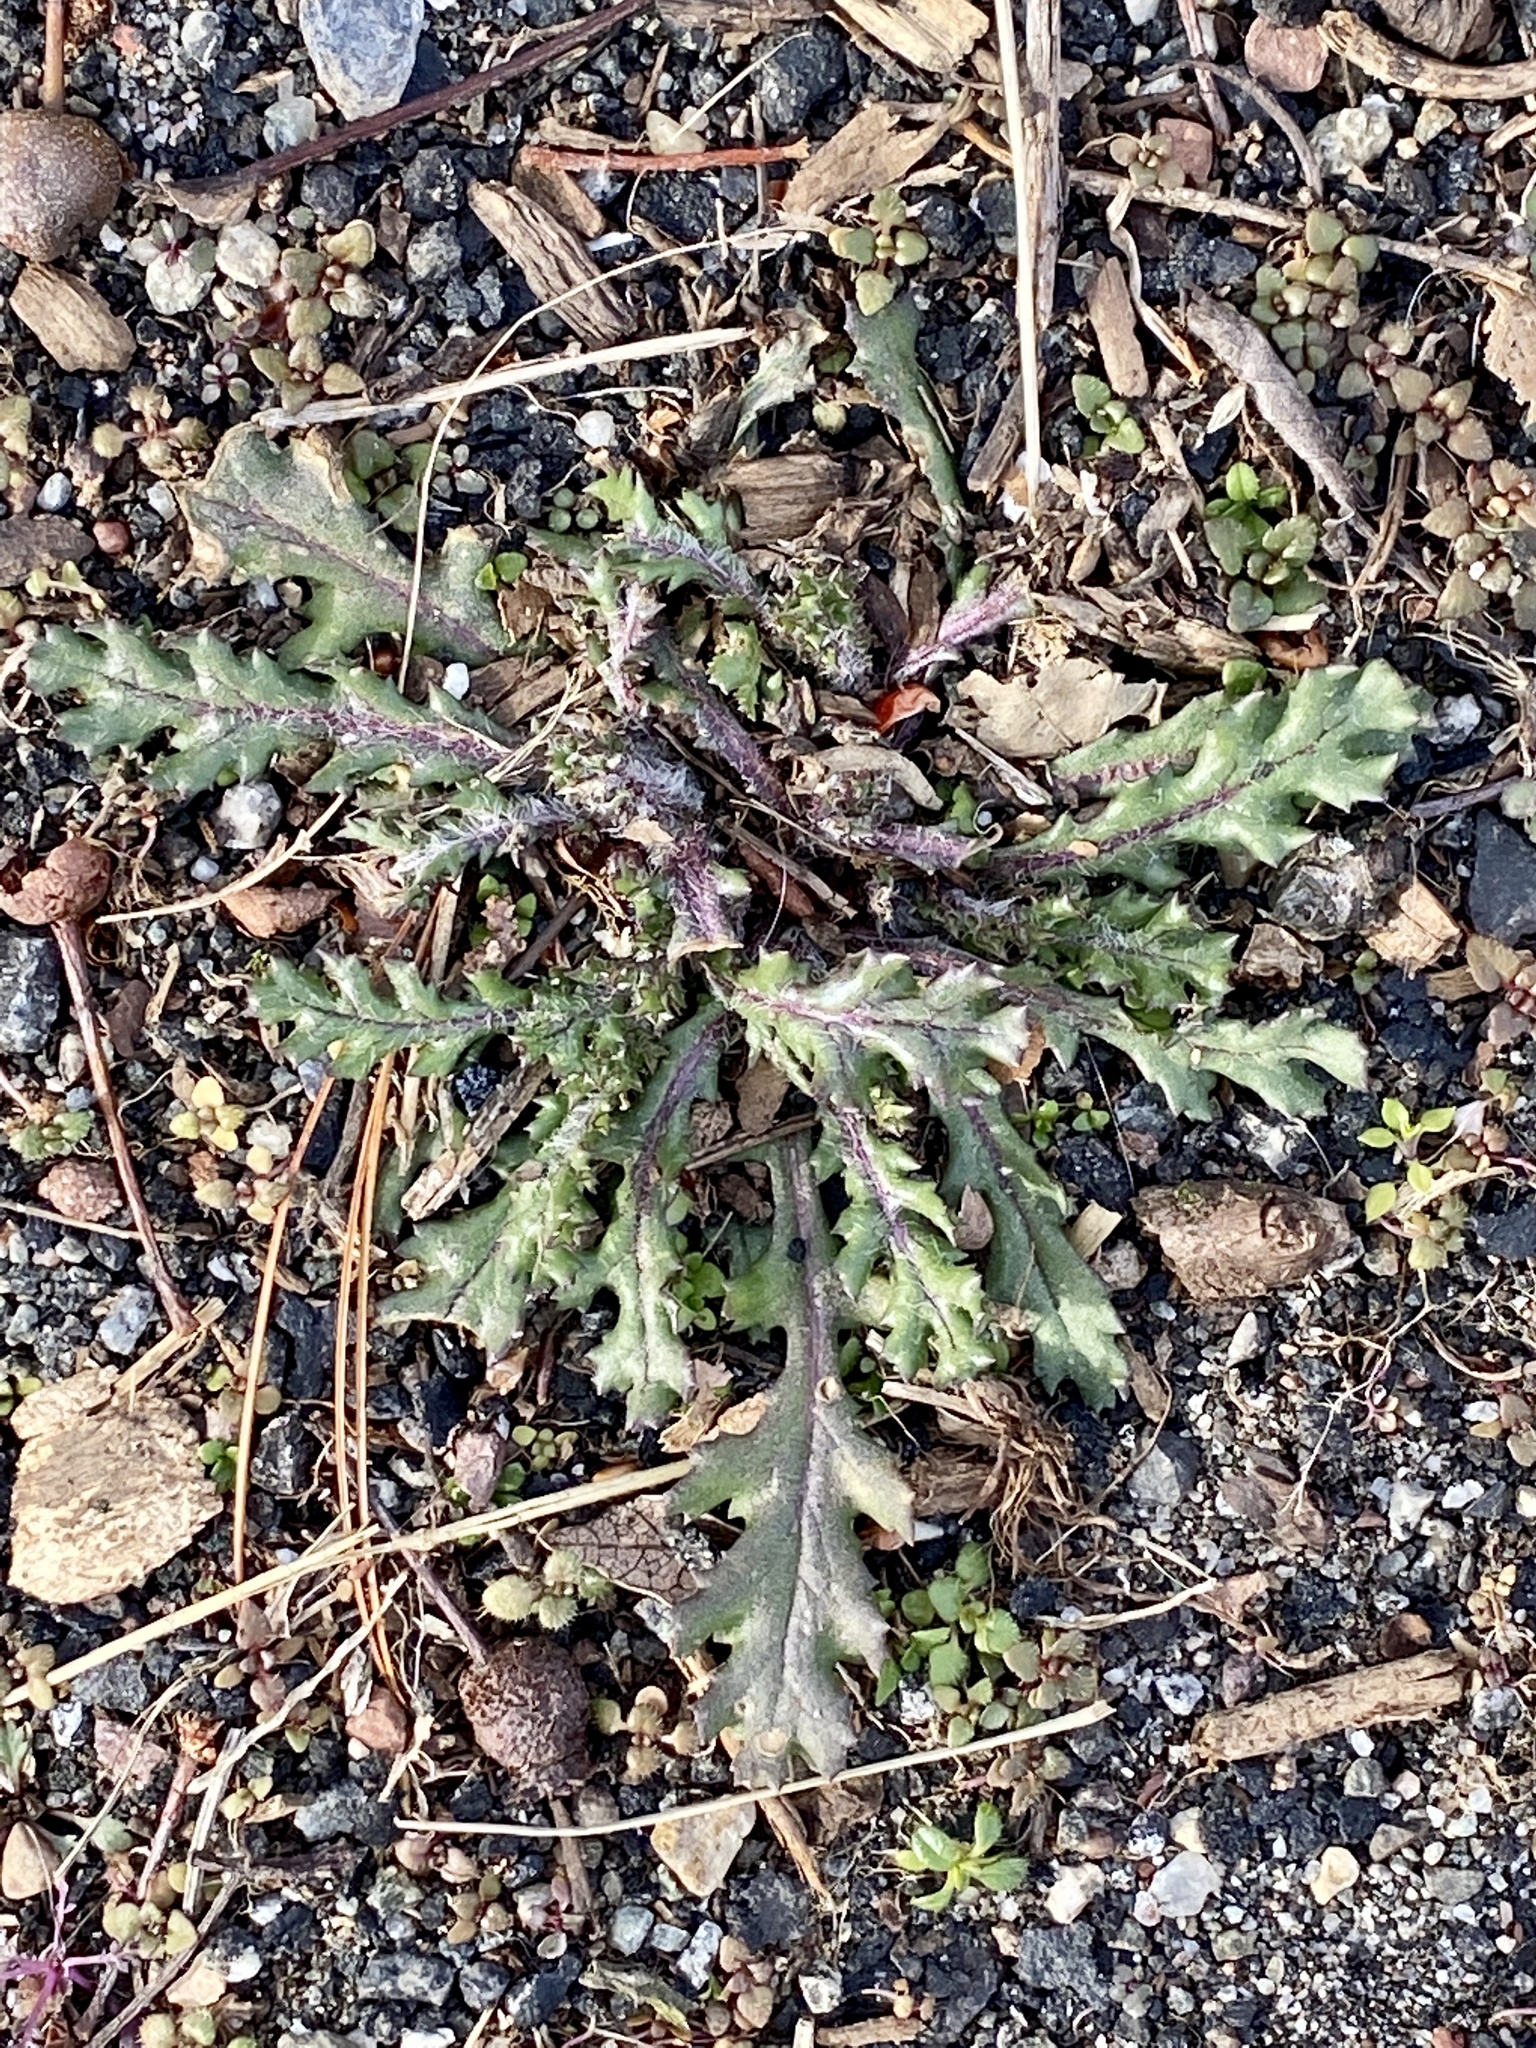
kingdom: Plantae
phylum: Tracheophyta
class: Magnoliopsida
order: Asterales
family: Asteraceae
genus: Senecio
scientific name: Senecio vulgaris
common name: Old-man-in-the-spring
